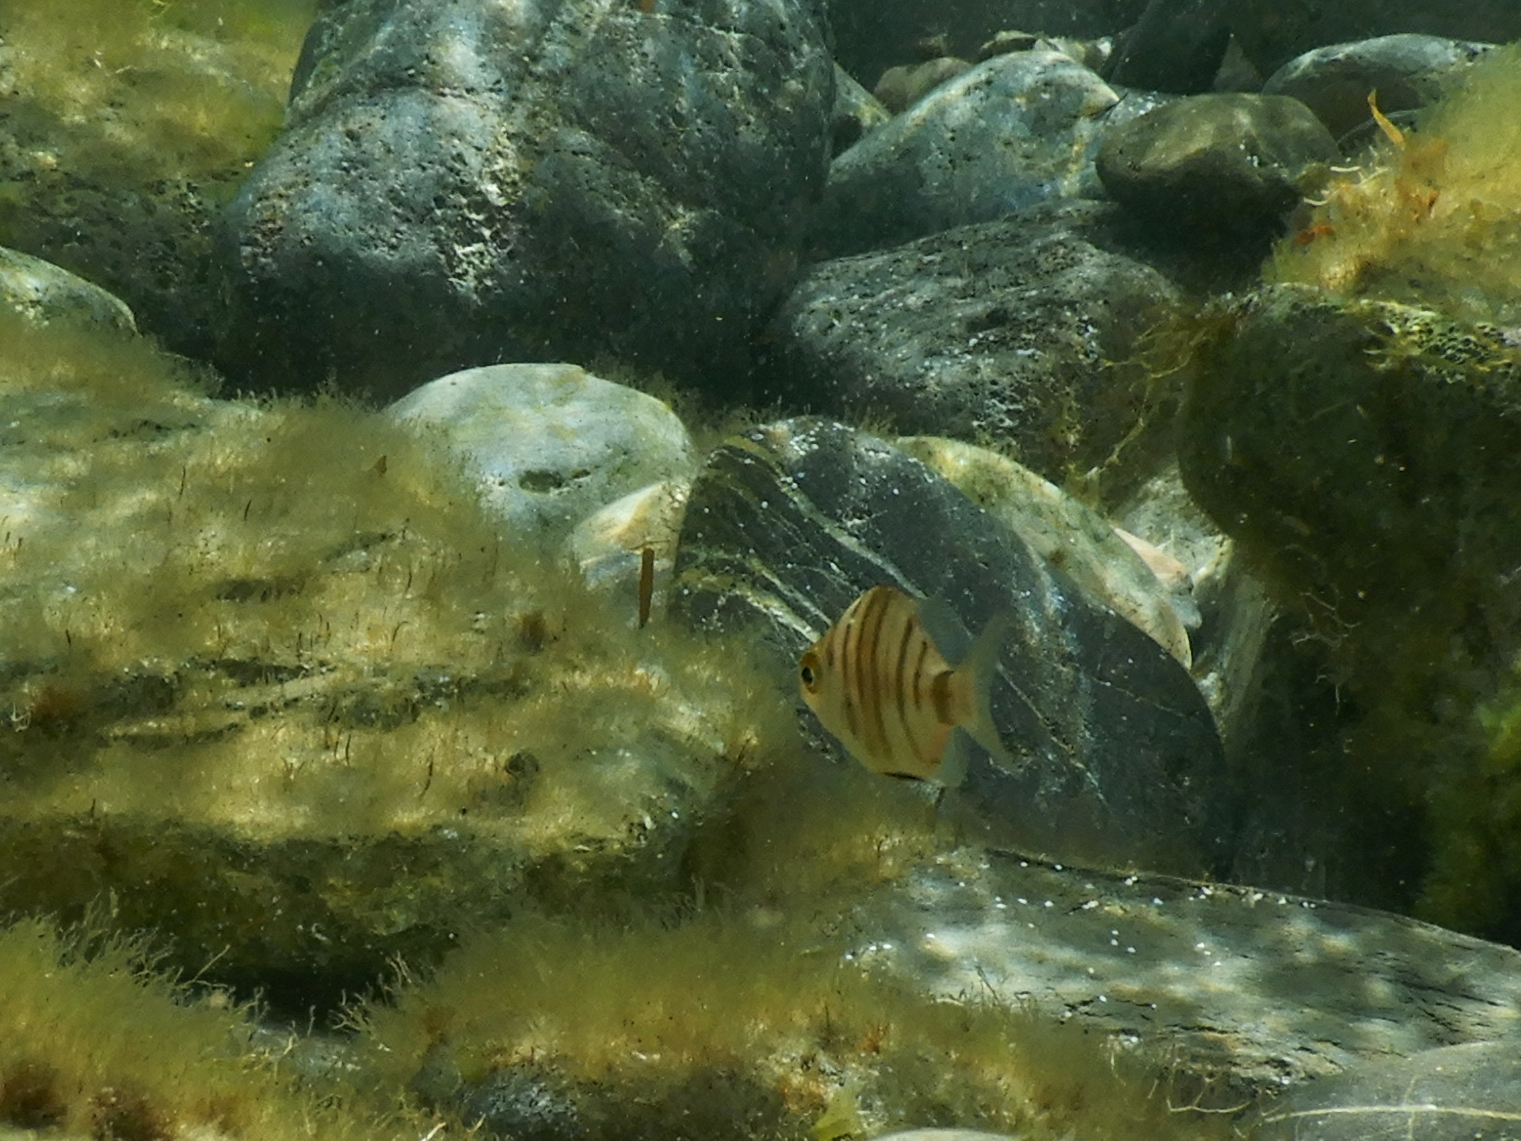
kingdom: Animalia
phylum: Chordata
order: Perciformes
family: Sparidae
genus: Diplodus
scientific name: Diplodus puntazzo
